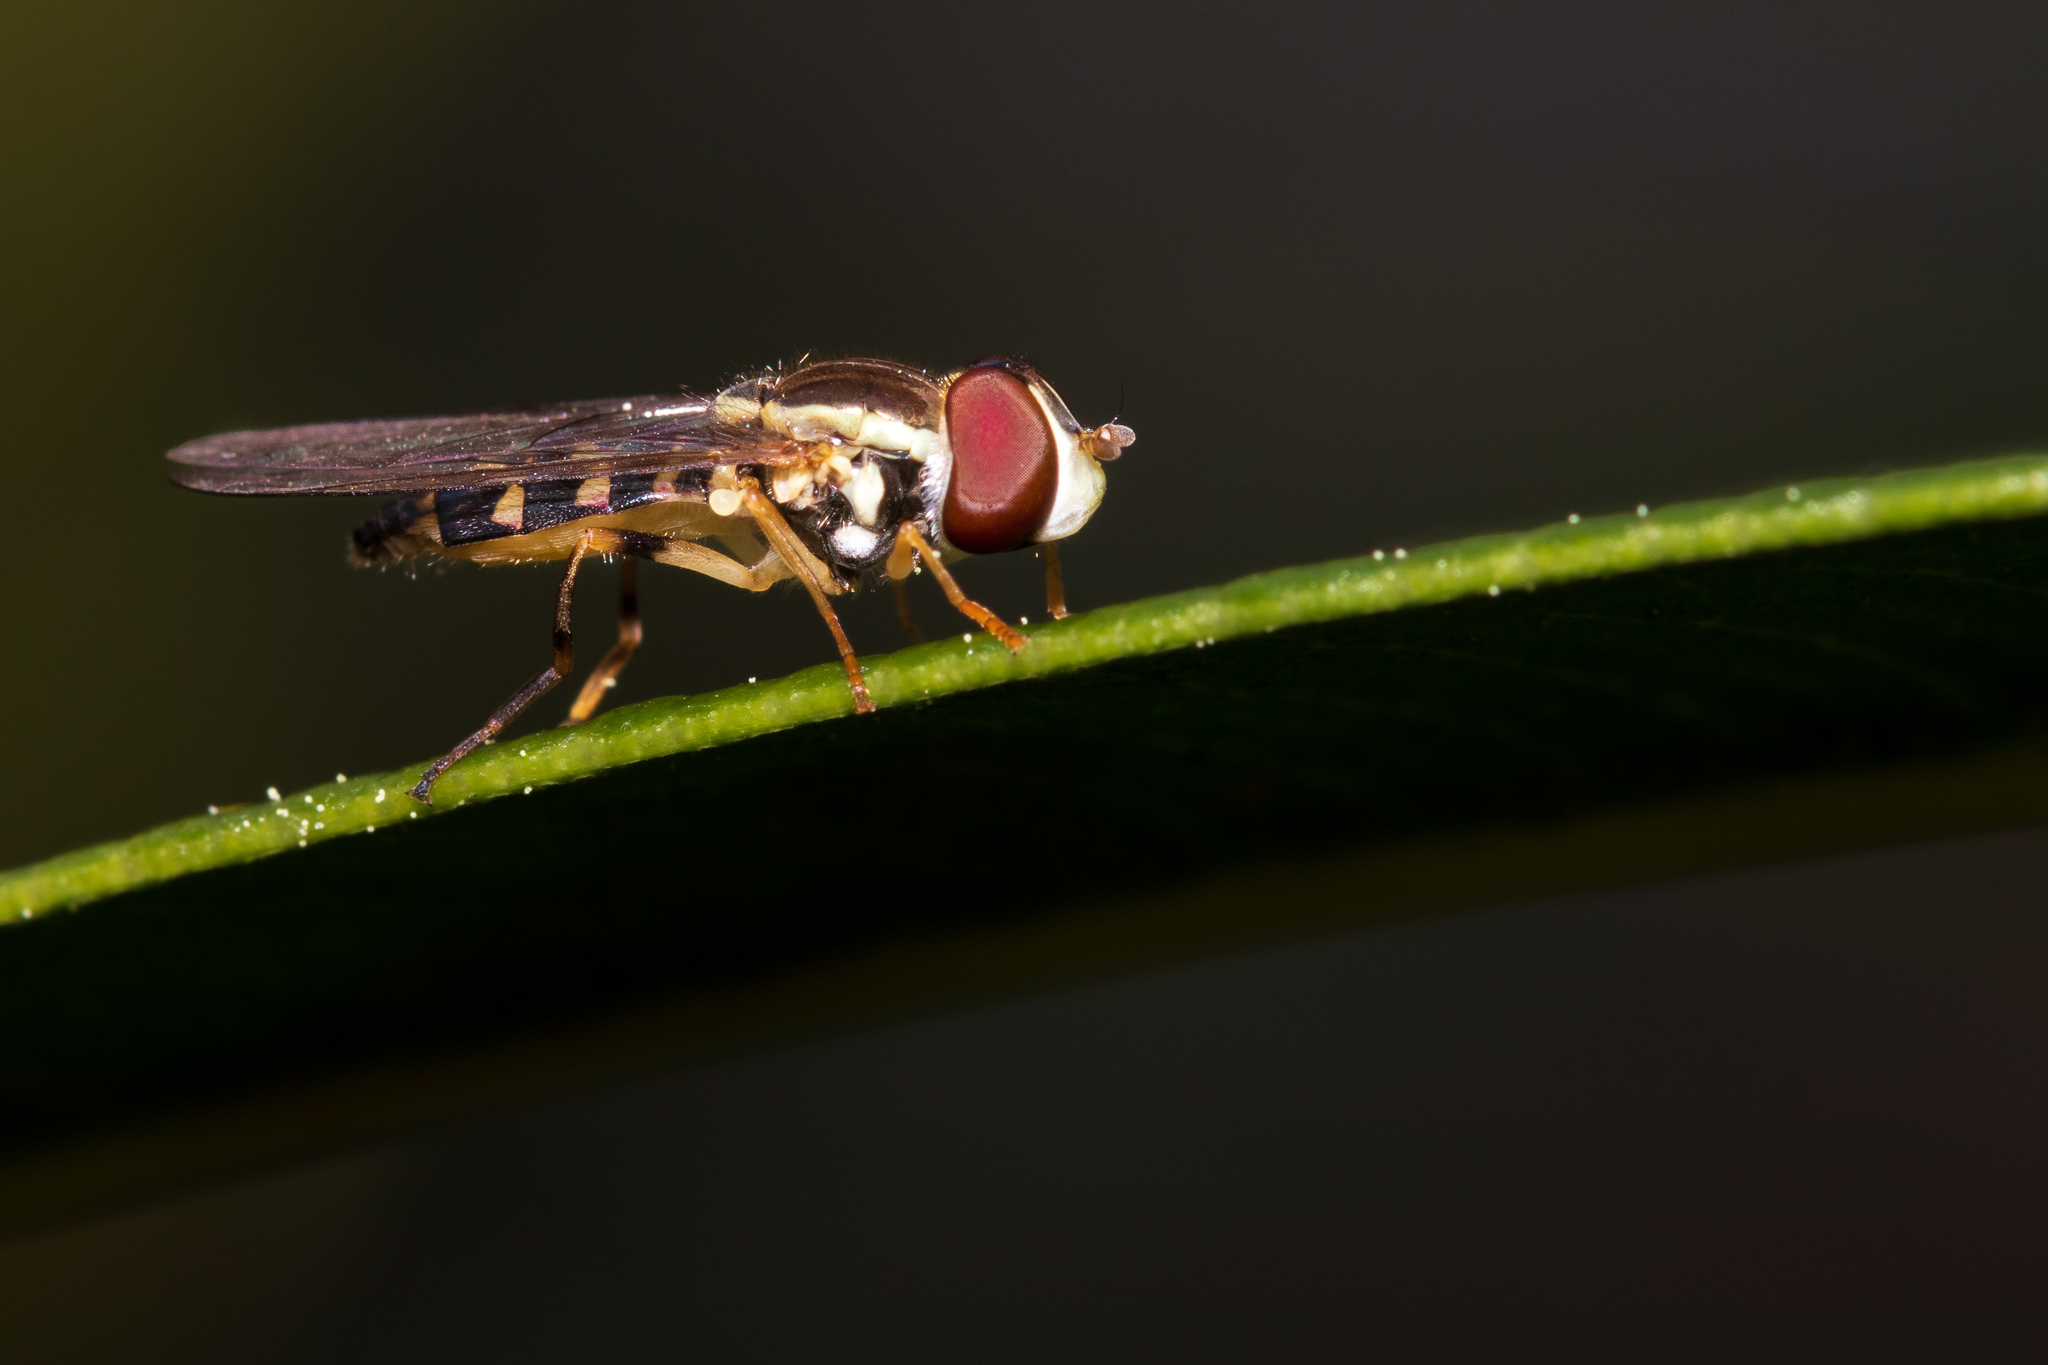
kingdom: Animalia
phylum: Arthropoda
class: Insecta
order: Diptera
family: Syrphidae
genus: Toxomerus
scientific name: Toxomerus geminatus
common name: Eastern calligrapher
